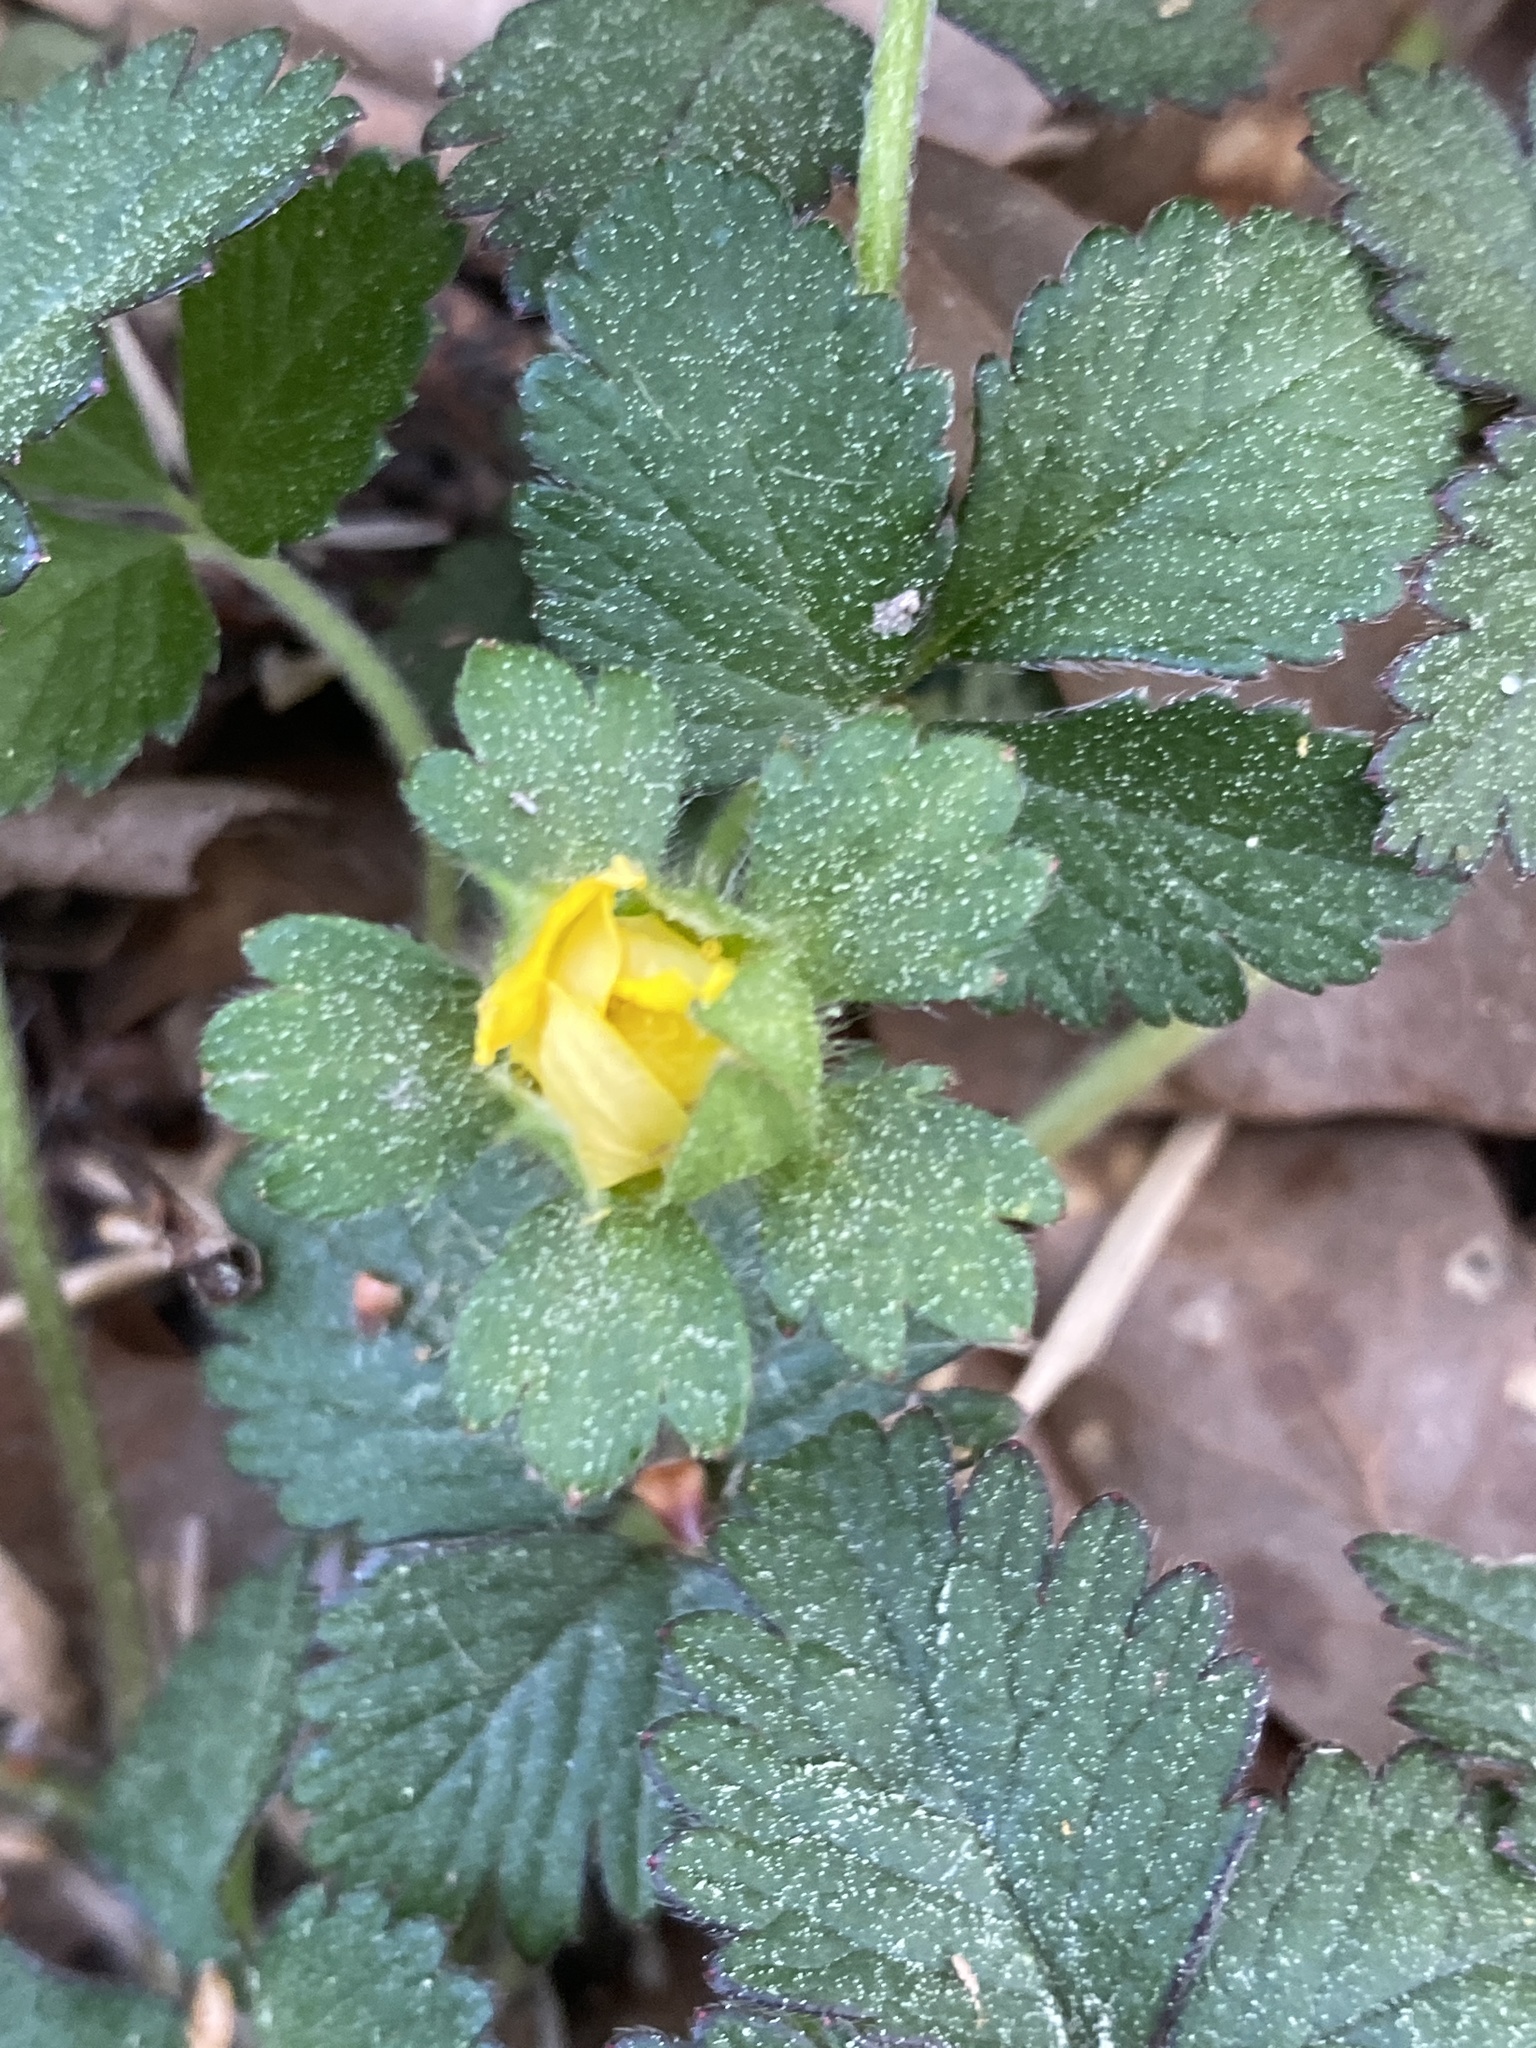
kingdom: Plantae
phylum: Tracheophyta
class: Magnoliopsida
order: Rosales
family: Rosaceae
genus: Potentilla
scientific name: Potentilla indica
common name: Yellow-flowered strawberry
